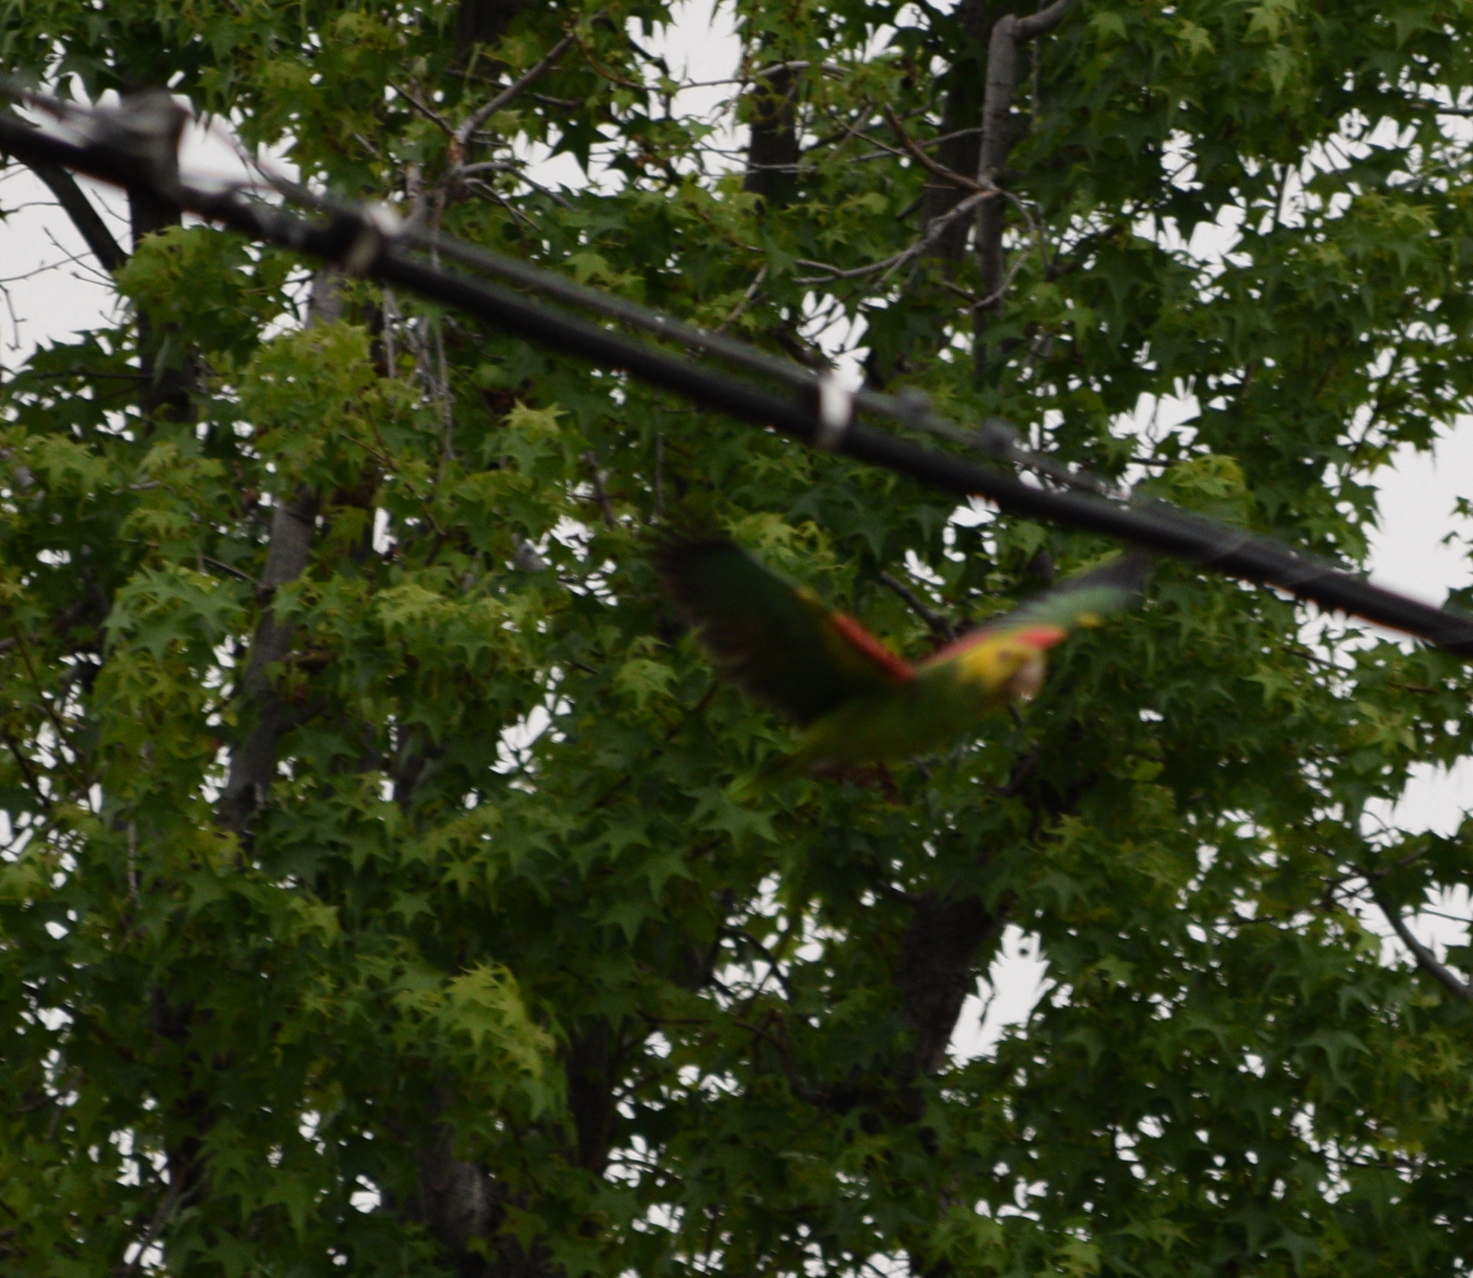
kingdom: Animalia
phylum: Chordata
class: Aves
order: Psittaciformes
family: Psittacidae
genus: Amazona
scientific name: Amazona oratrix
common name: Yellow-headed amazon
